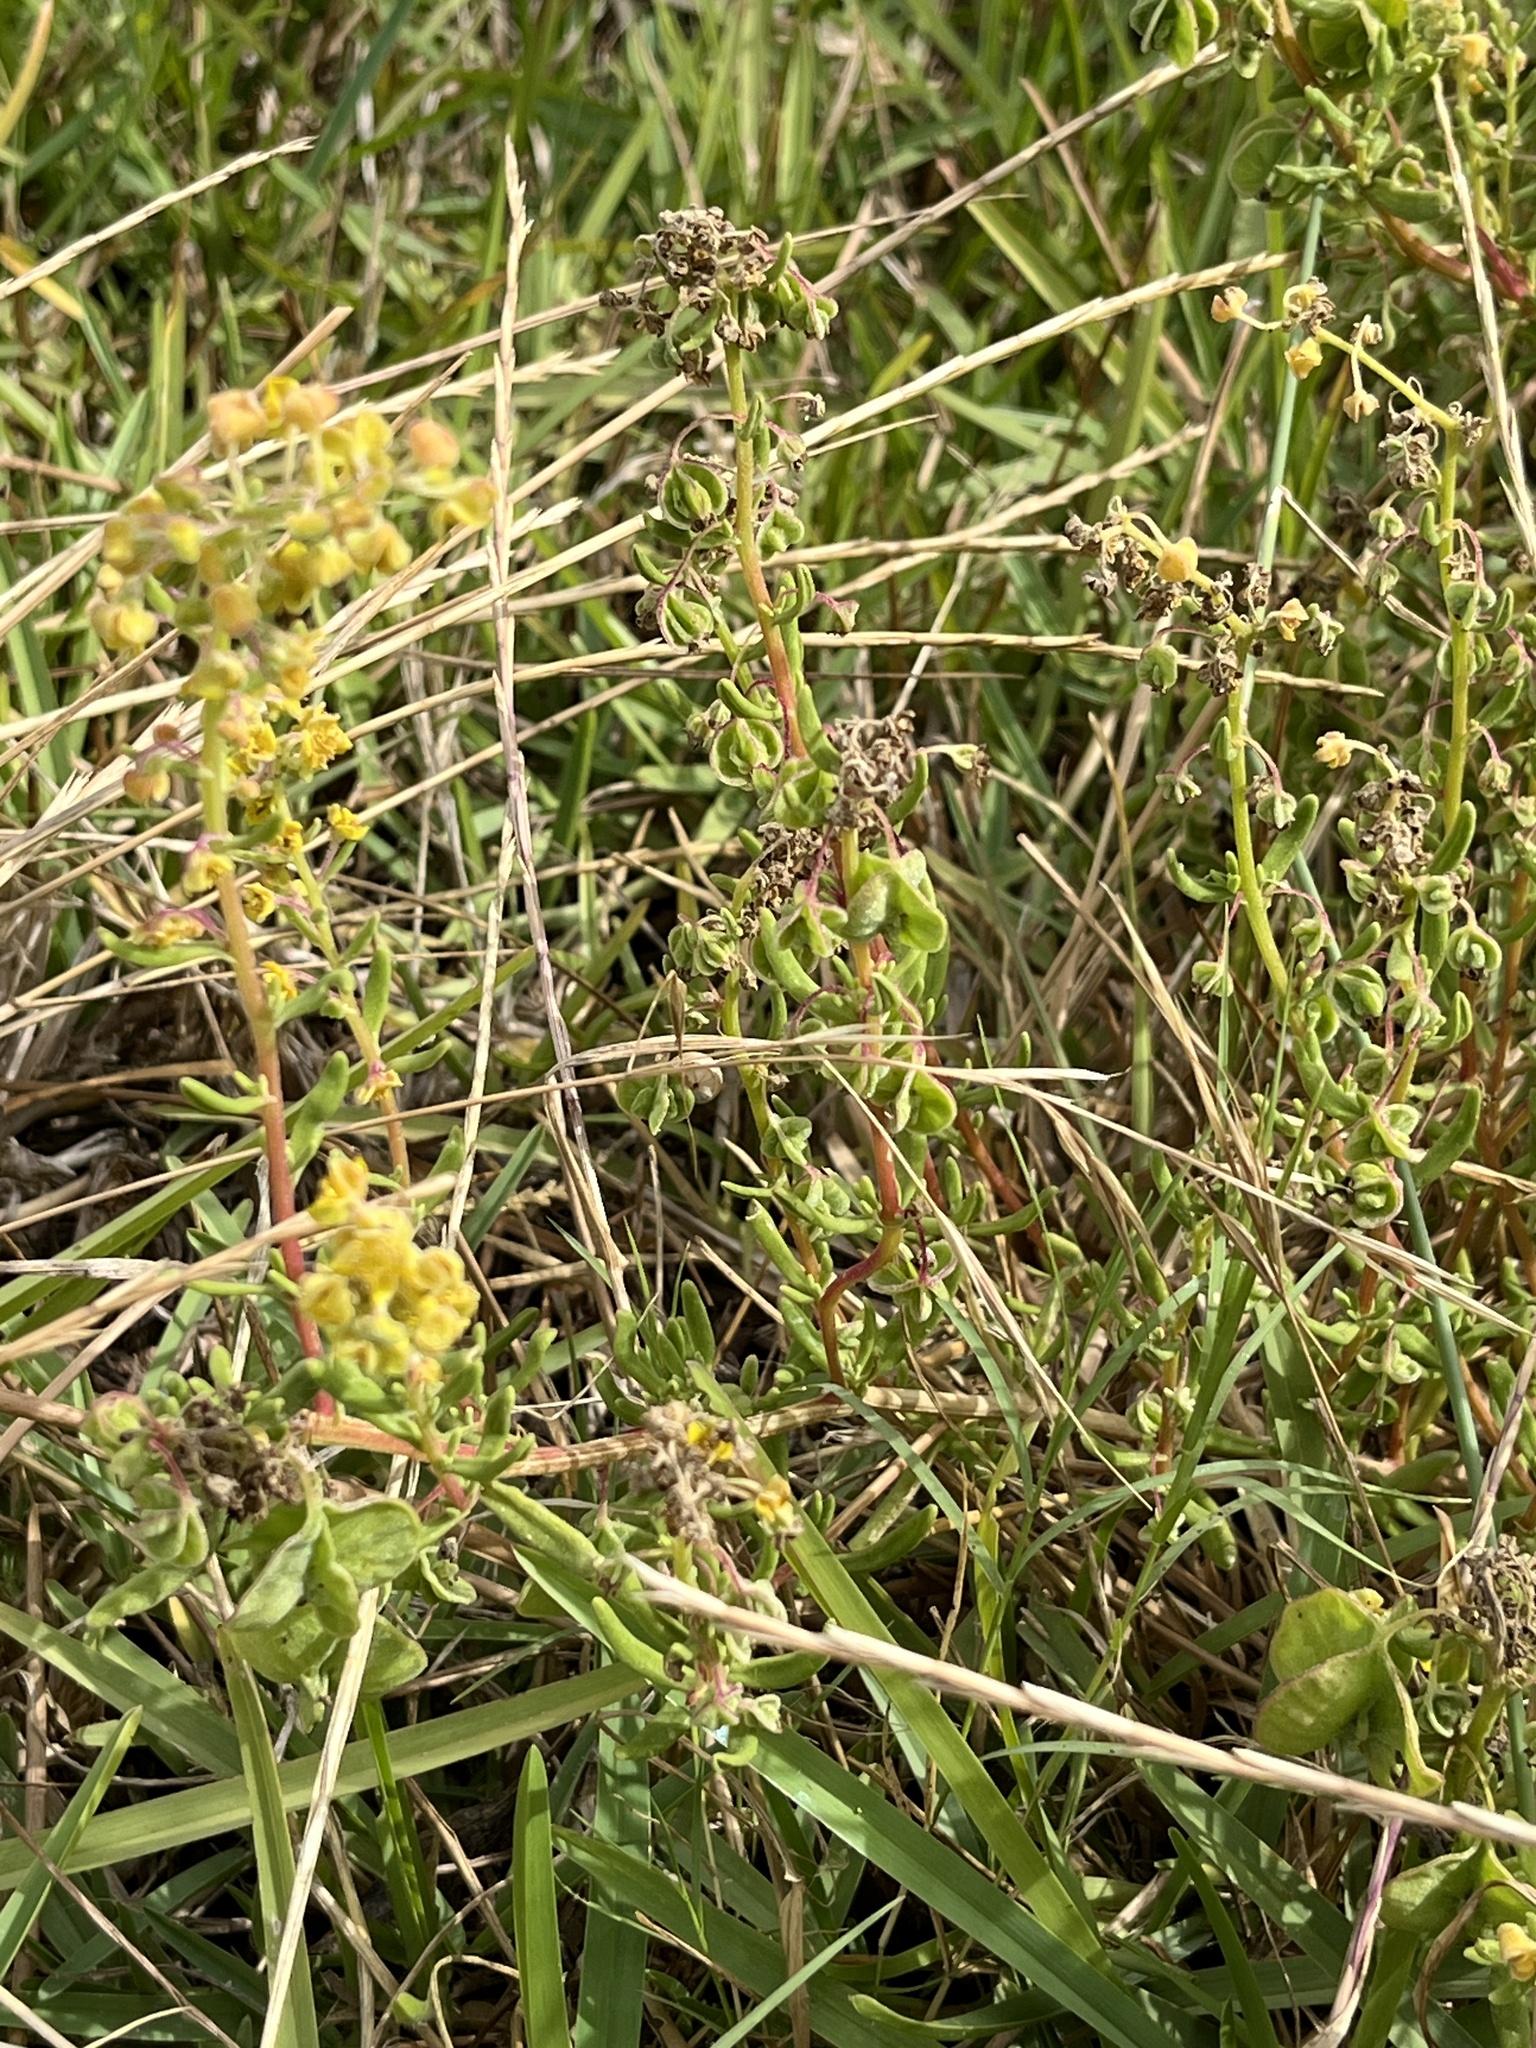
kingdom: Plantae
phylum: Tracheophyta
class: Magnoliopsida
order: Caryophyllales
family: Aizoaceae
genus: Tetragonia
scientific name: Tetragonia fruticosa
